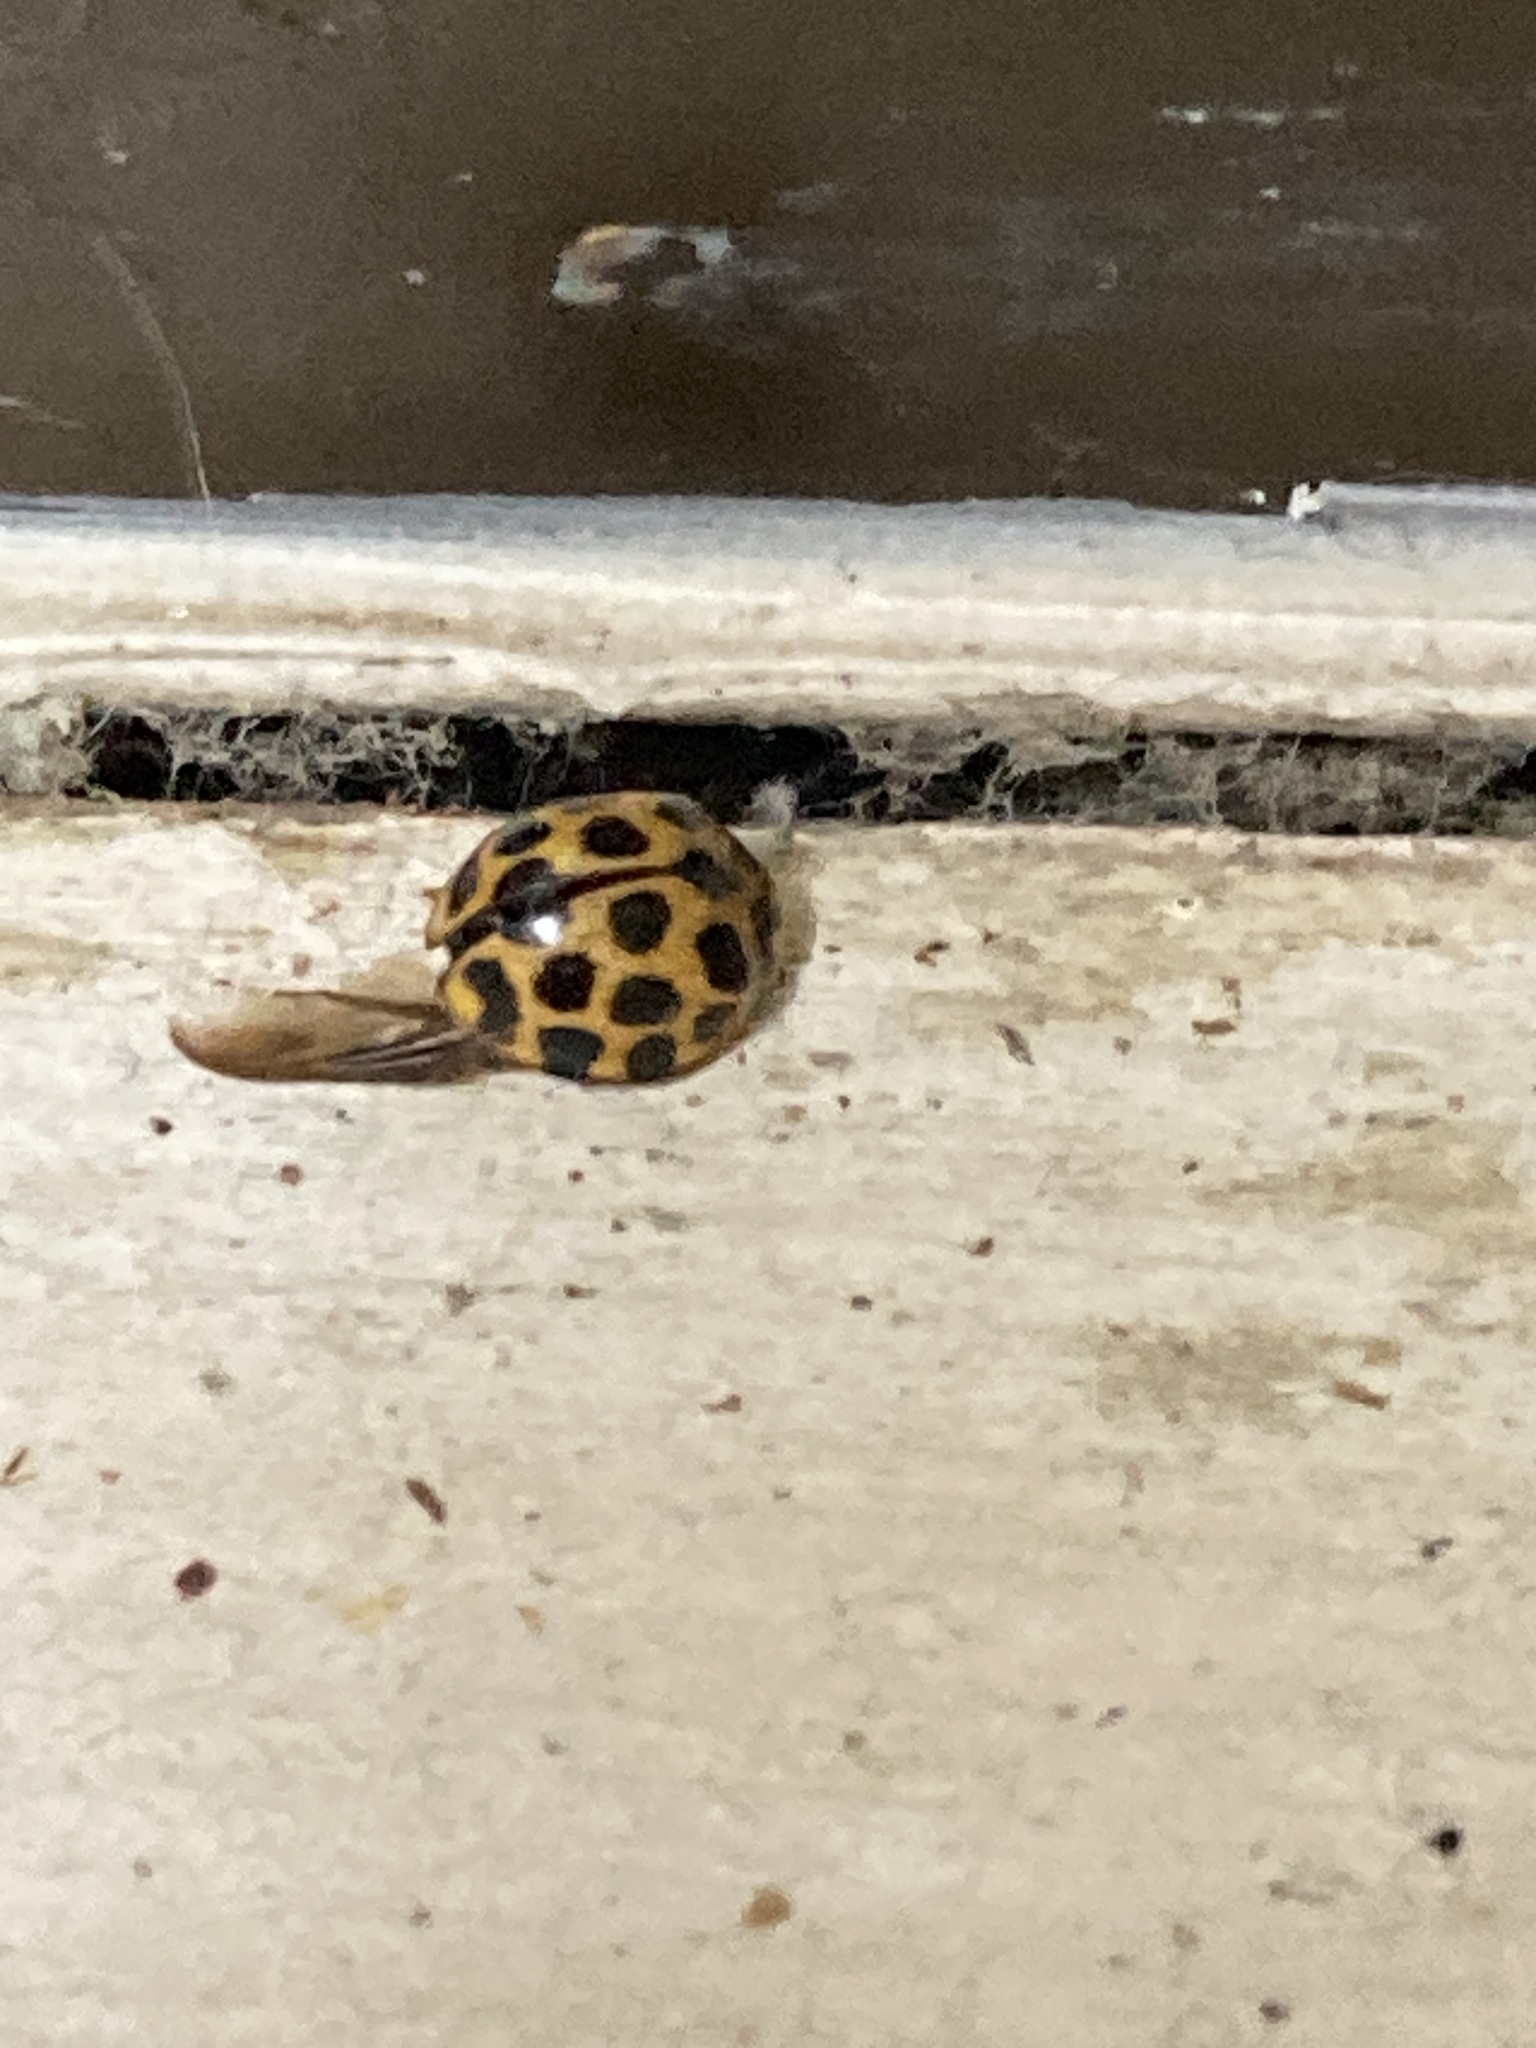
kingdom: Animalia
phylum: Arthropoda
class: Insecta
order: Coleoptera
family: Coccinellidae
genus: Harmonia
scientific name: Harmonia conformis
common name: Common spotted ladybird beetle
